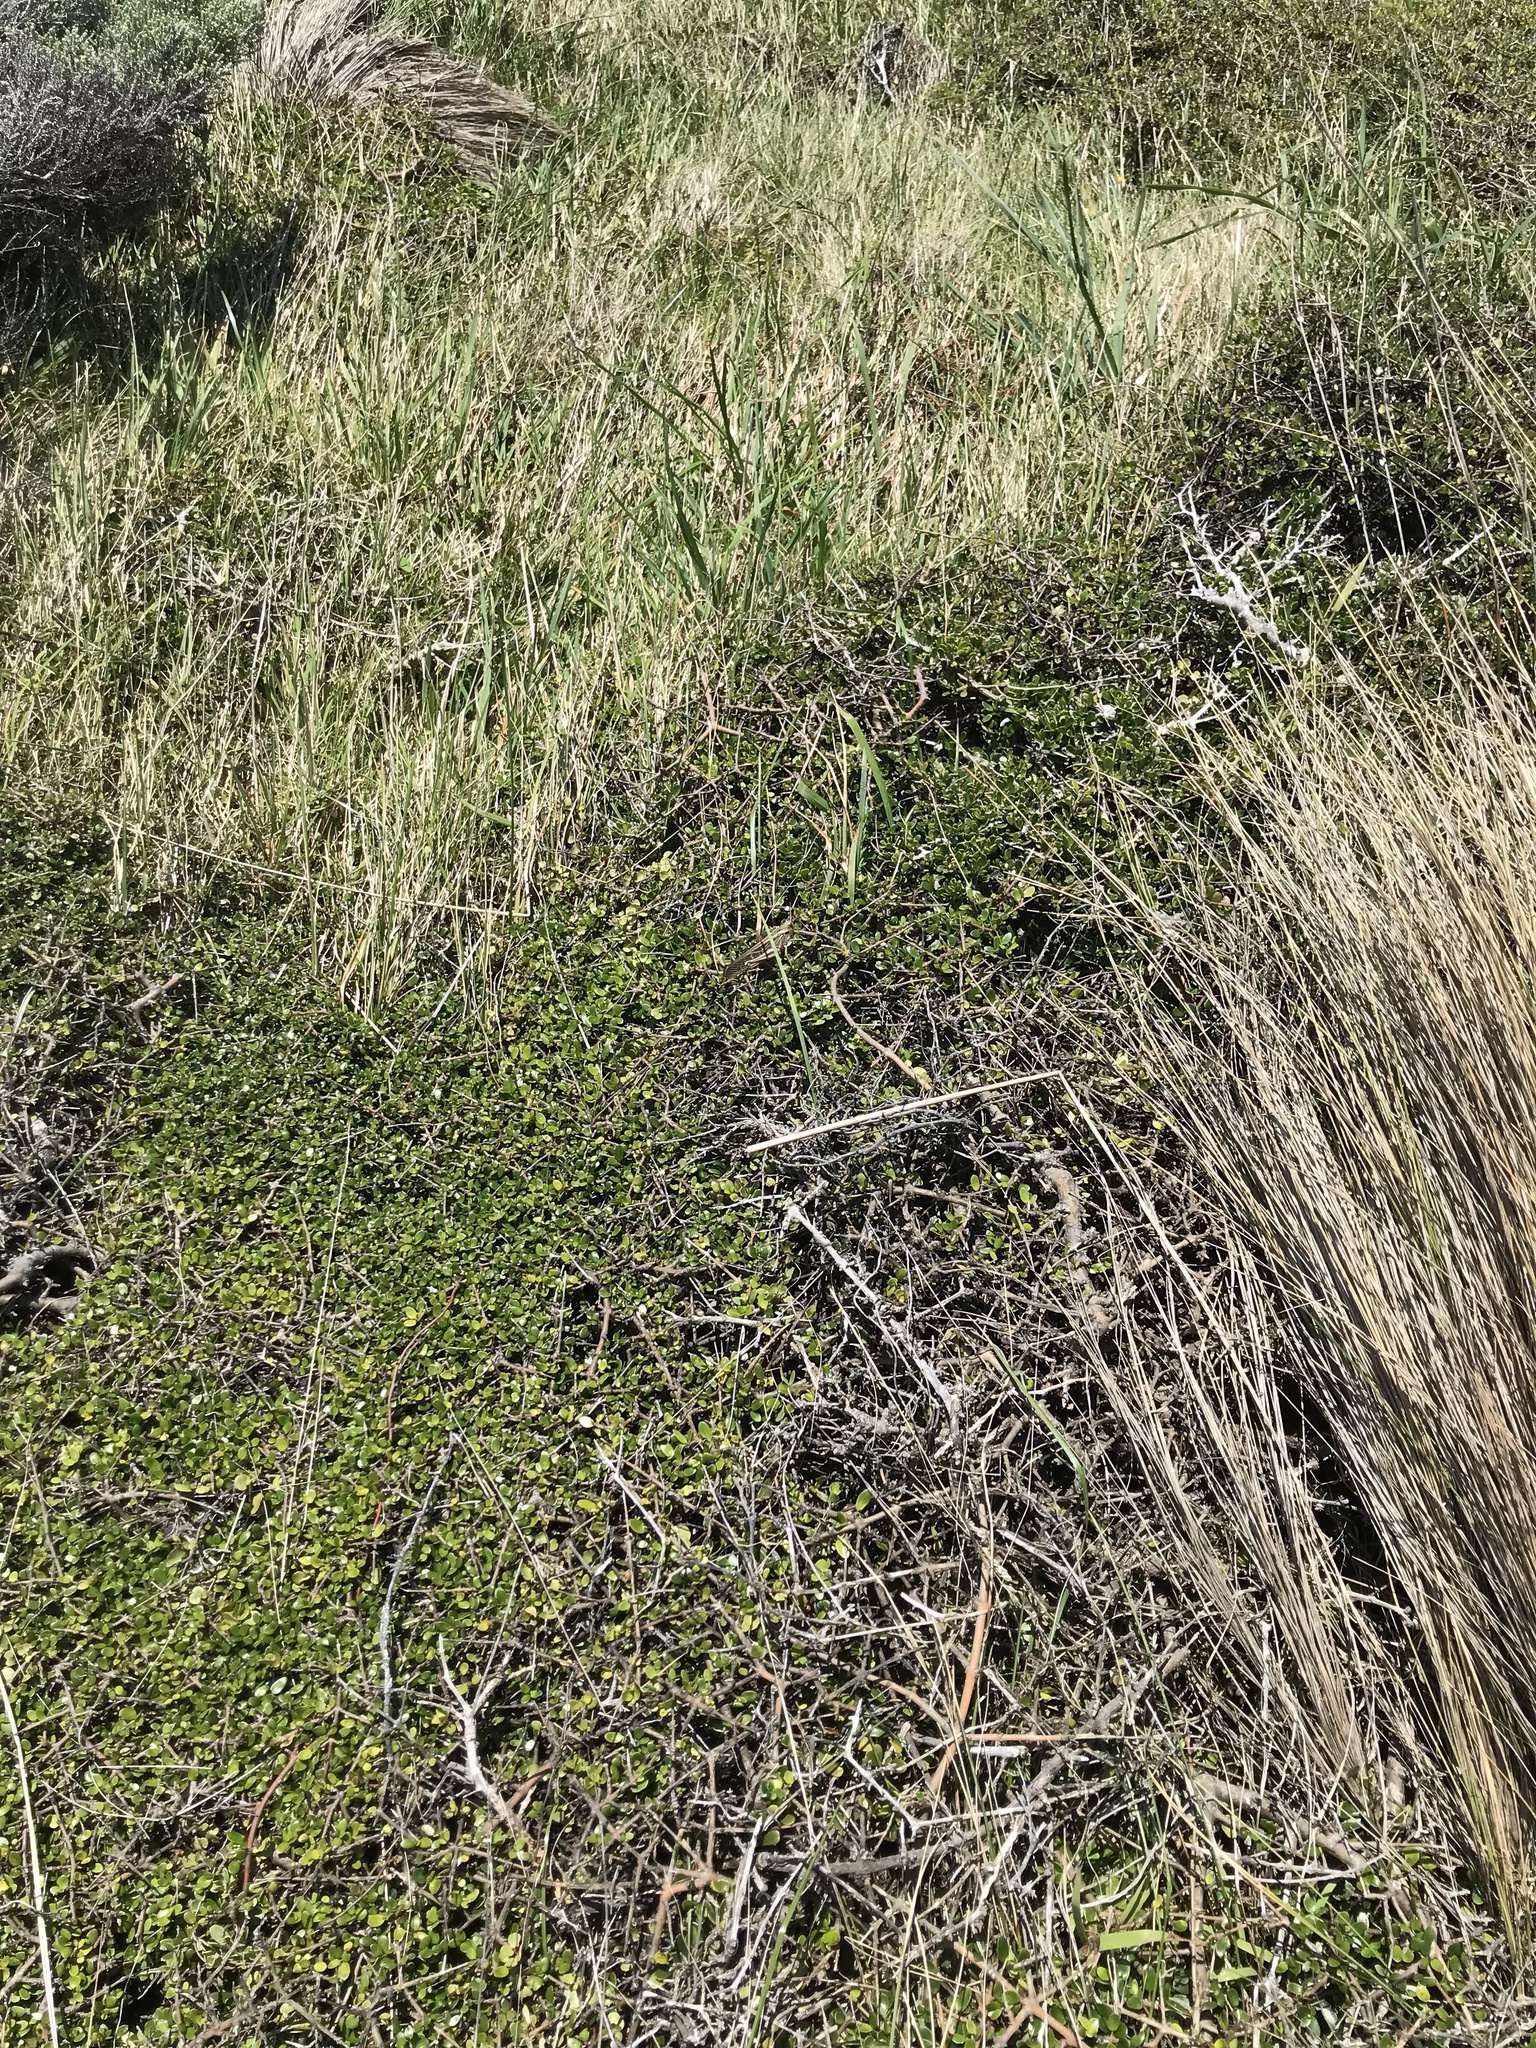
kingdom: Animalia
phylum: Arthropoda
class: Insecta
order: Orthoptera
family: Acrididae
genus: Locusta
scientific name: Locusta migratoria
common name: Migratory locust
